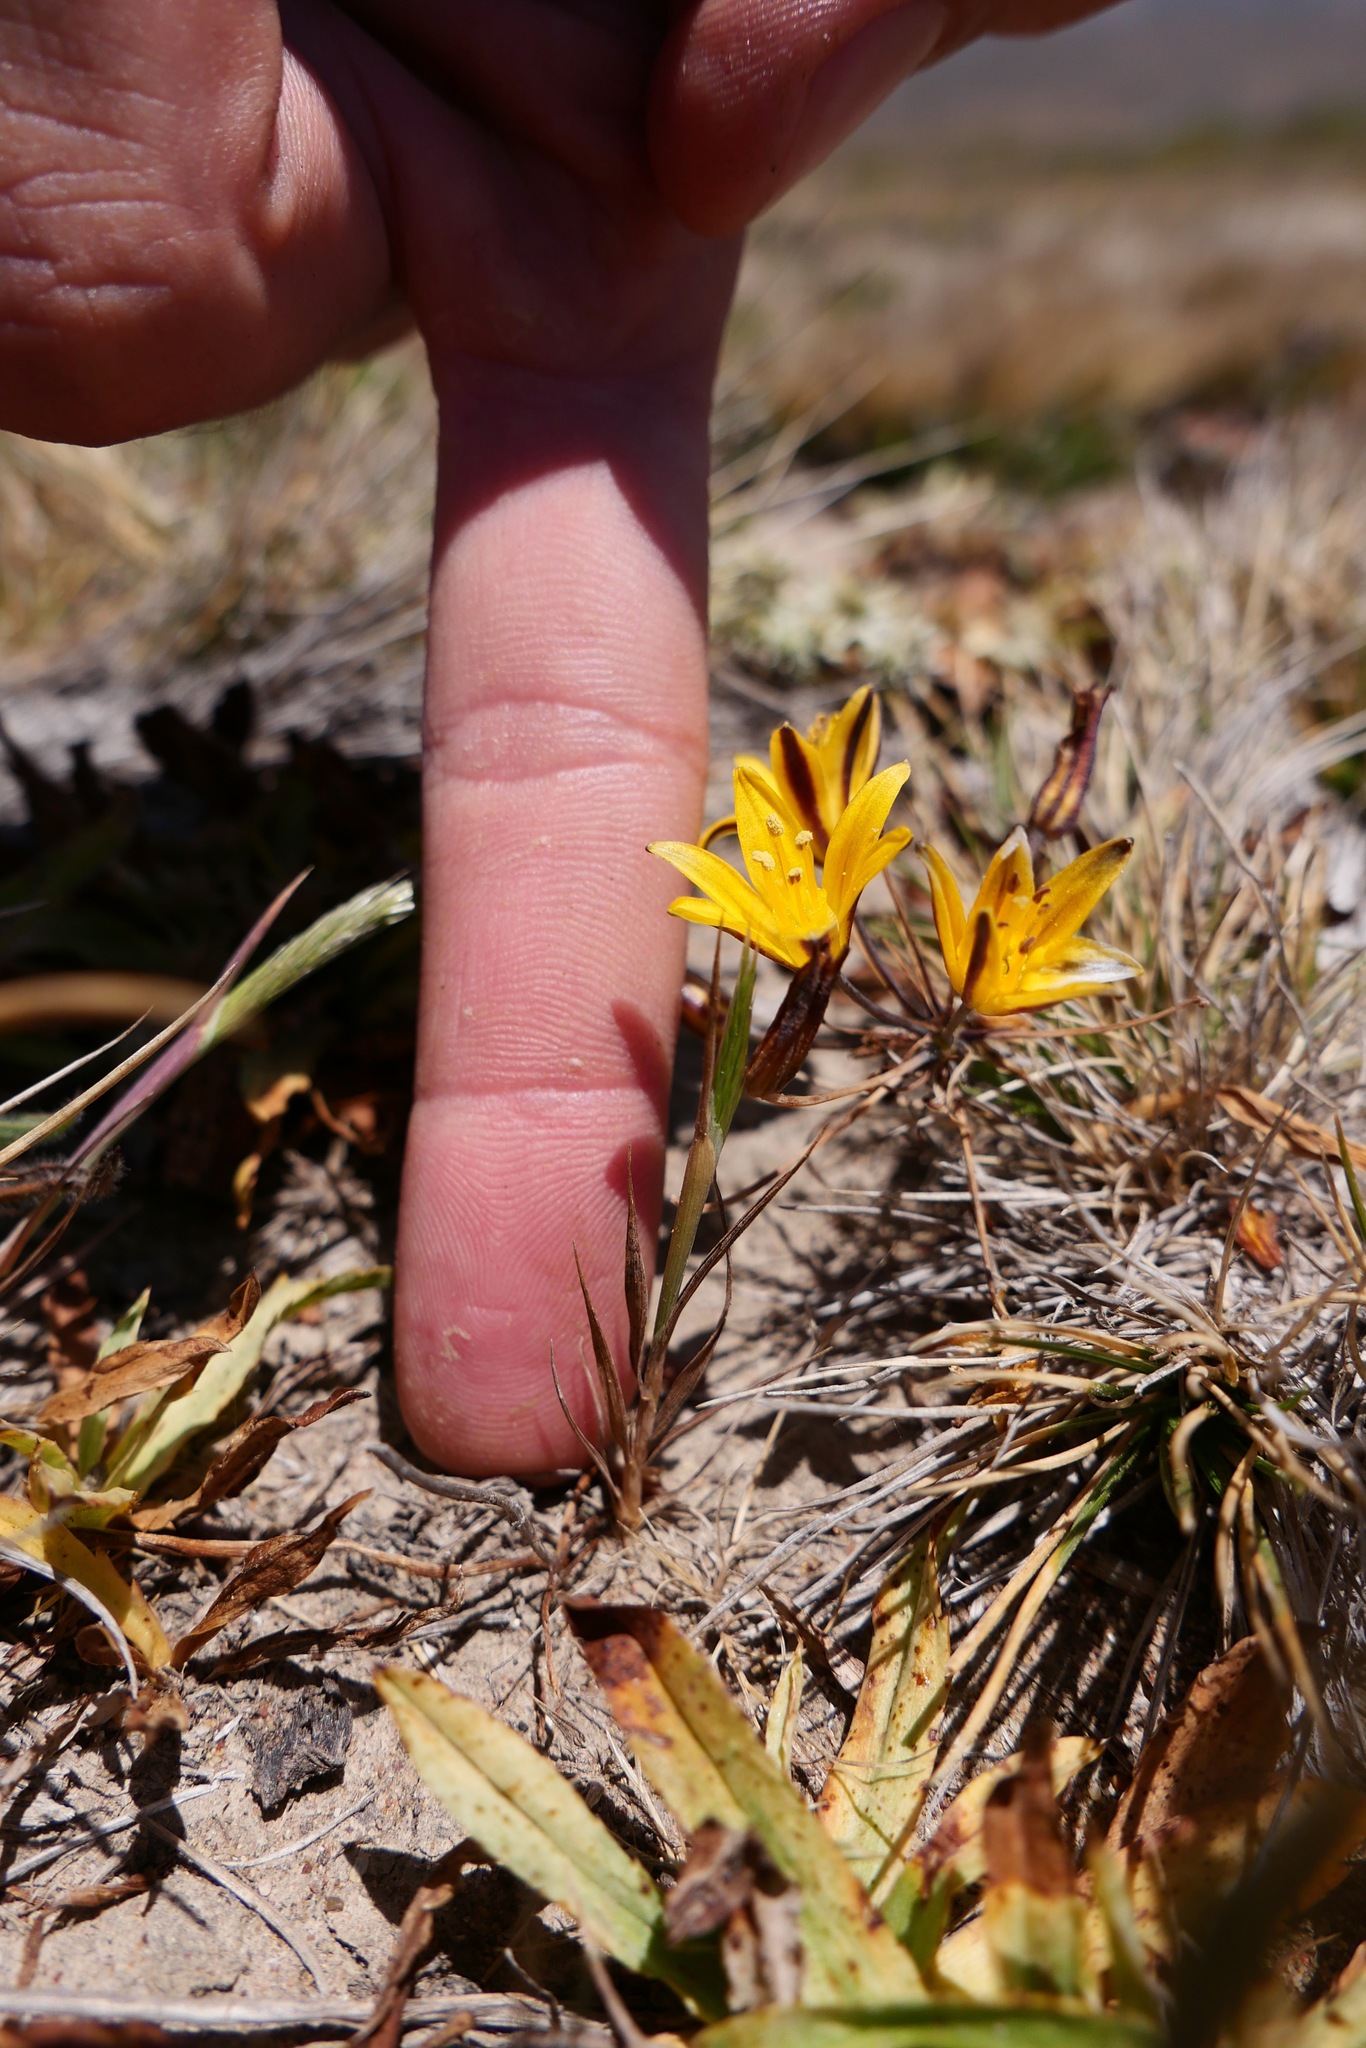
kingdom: Plantae
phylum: Tracheophyta
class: Liliopsida
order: Asparagales
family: Asparagaceae
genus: Bloomeria
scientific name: Bloomeria humilis
